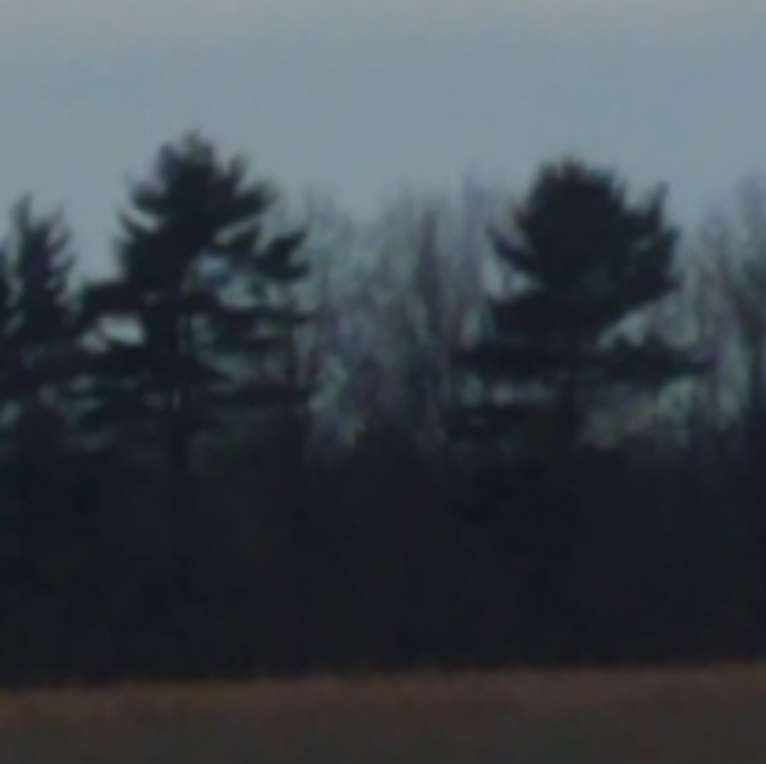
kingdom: Plantae
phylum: Tracheophyta
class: Pinopsida
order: Pinales
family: Pinaceae
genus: Pinus
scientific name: Pinus strobus
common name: Weymouth pine
